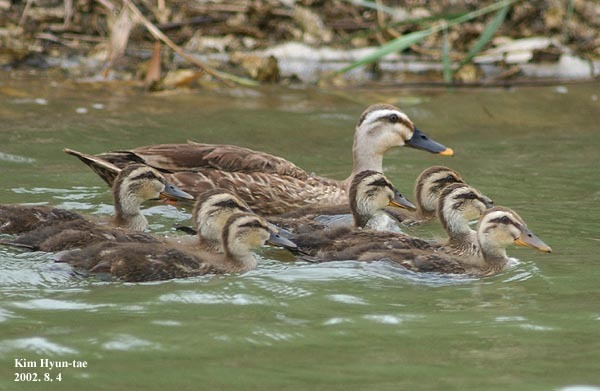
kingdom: Animalia
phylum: Chordata
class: Aves
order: Anseriformes
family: Anatidae
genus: Anas
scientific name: Anas zonorhyncha
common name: Eastern spot-billed duck
